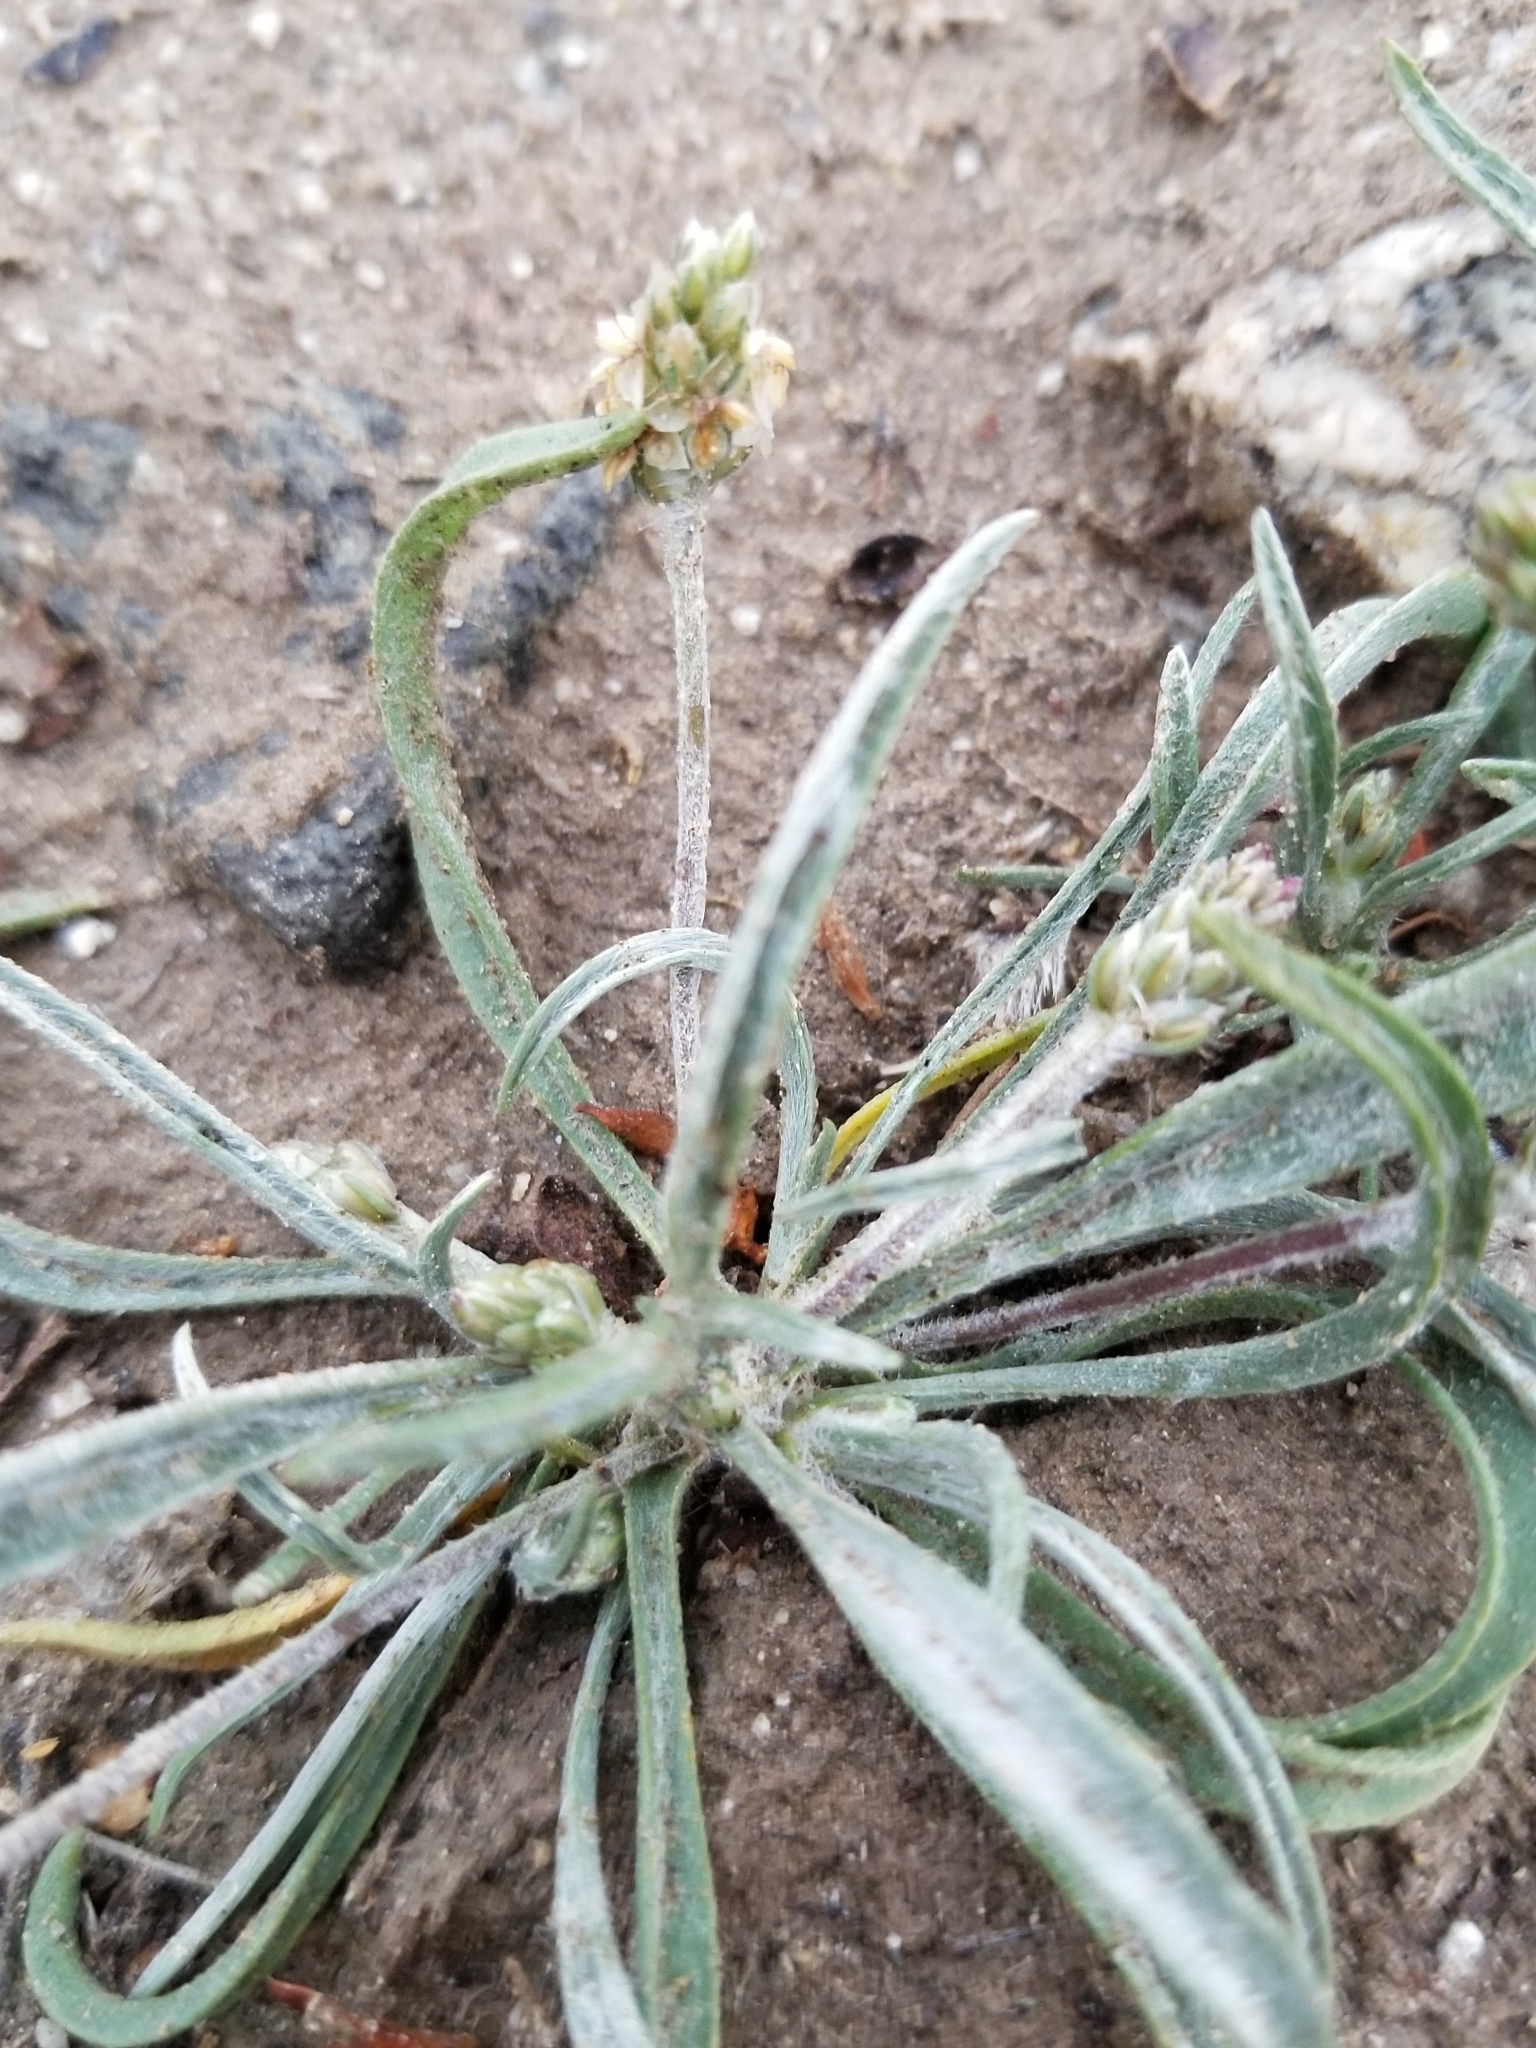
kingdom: Plantae
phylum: Tracheophyta
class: Magnoliopsida
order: Lamiales
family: Plantaginaceae
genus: Plantago
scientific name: Plantago ovata
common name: Blond plantain
